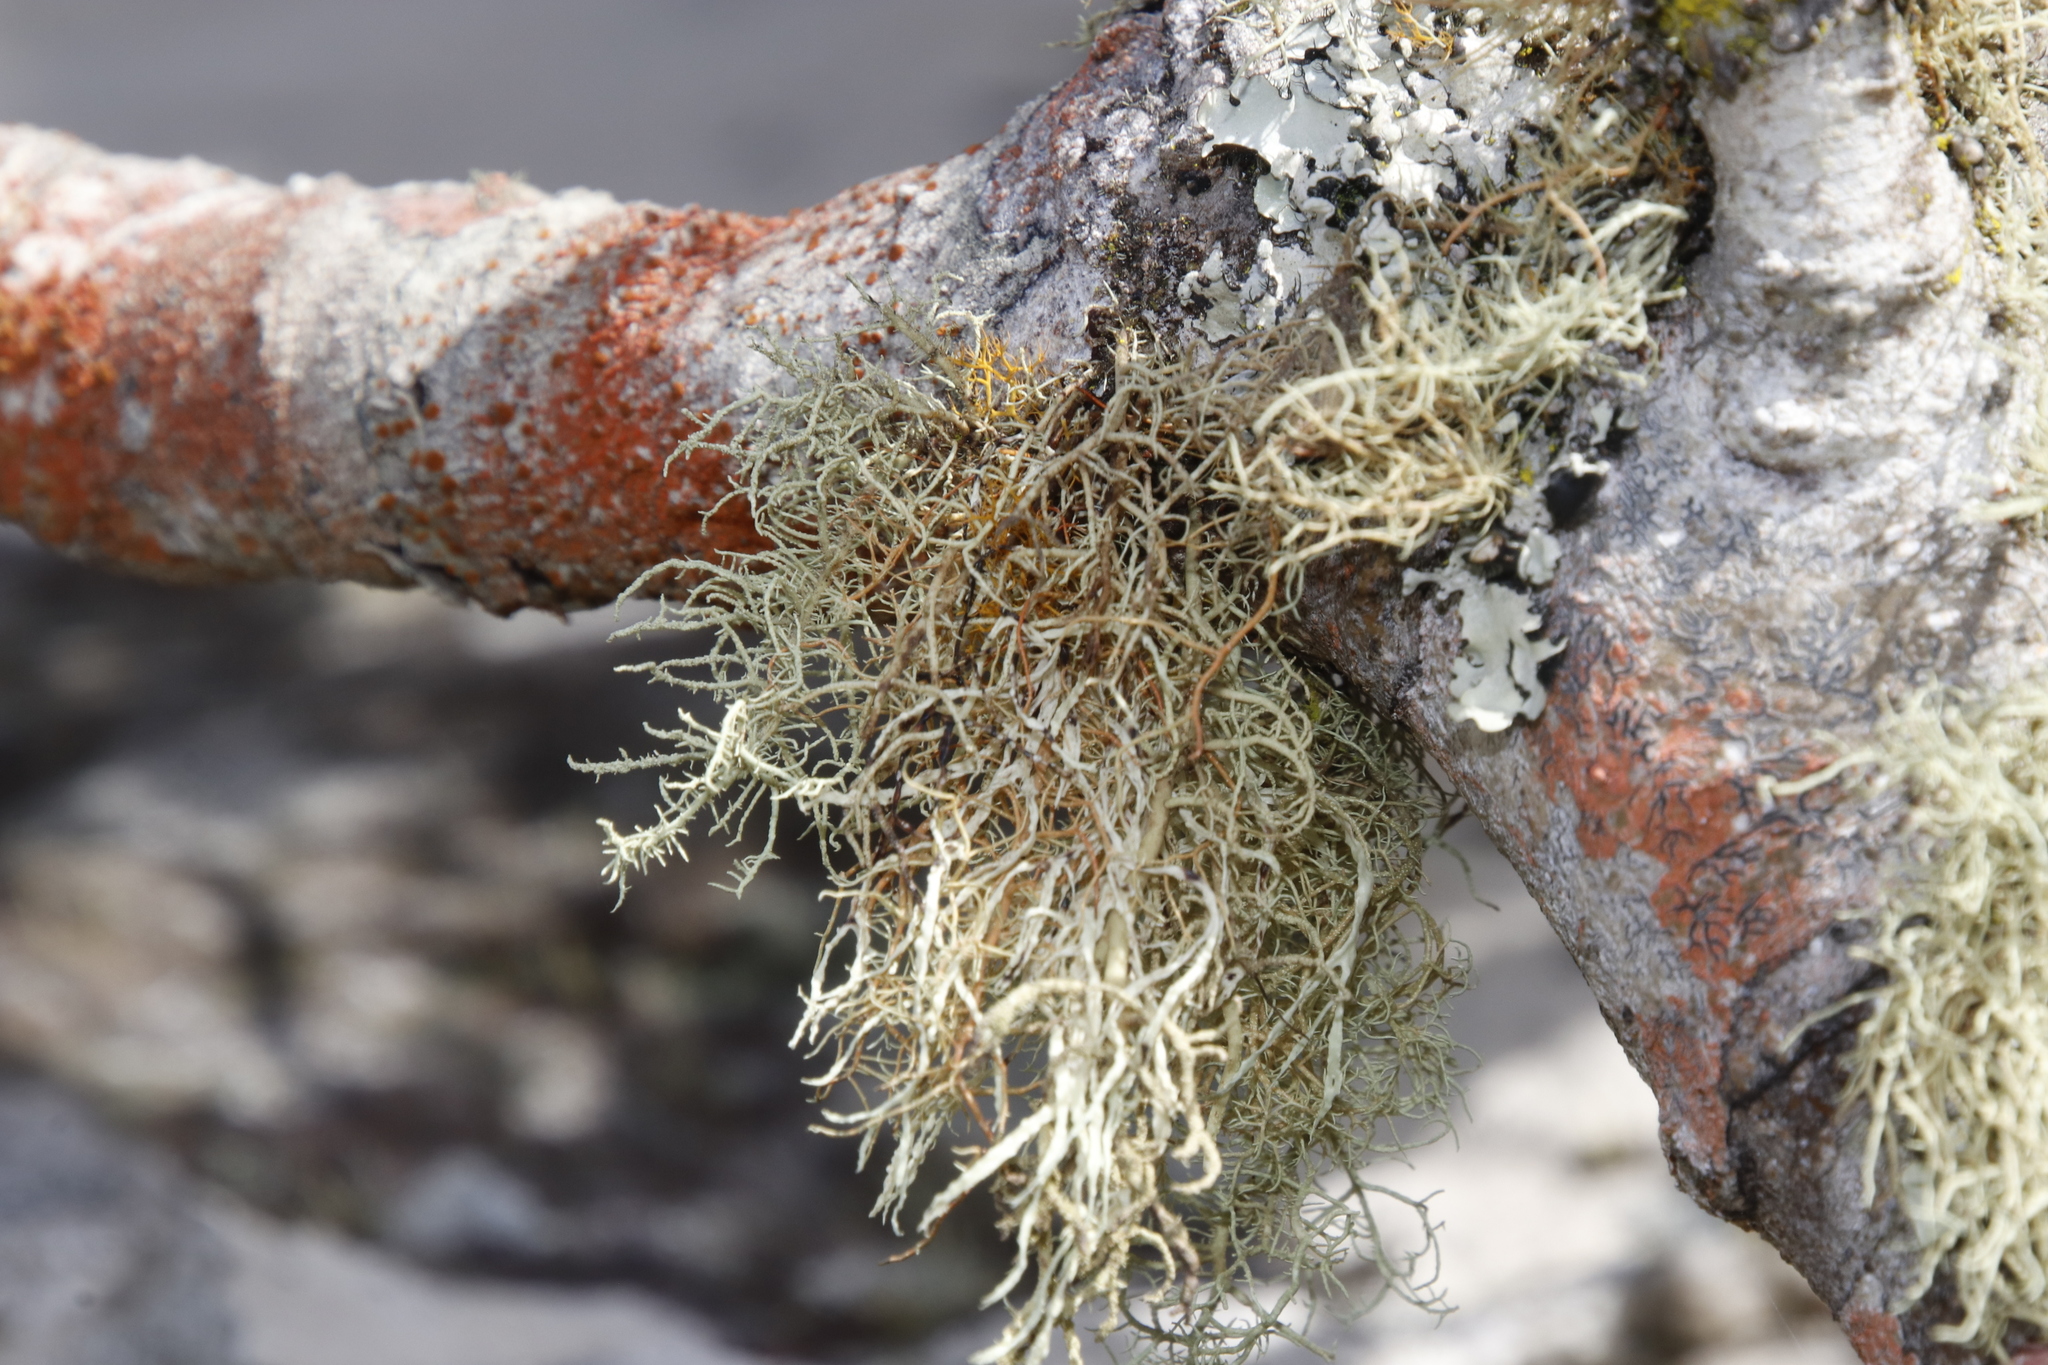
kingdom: Fungi
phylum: Ascomycota
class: Lecanoromycetes
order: Teloschistales
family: Teloschistaceae
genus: Teloschistes
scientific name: Teloschistes flavicans
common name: Golden hair-lichen
